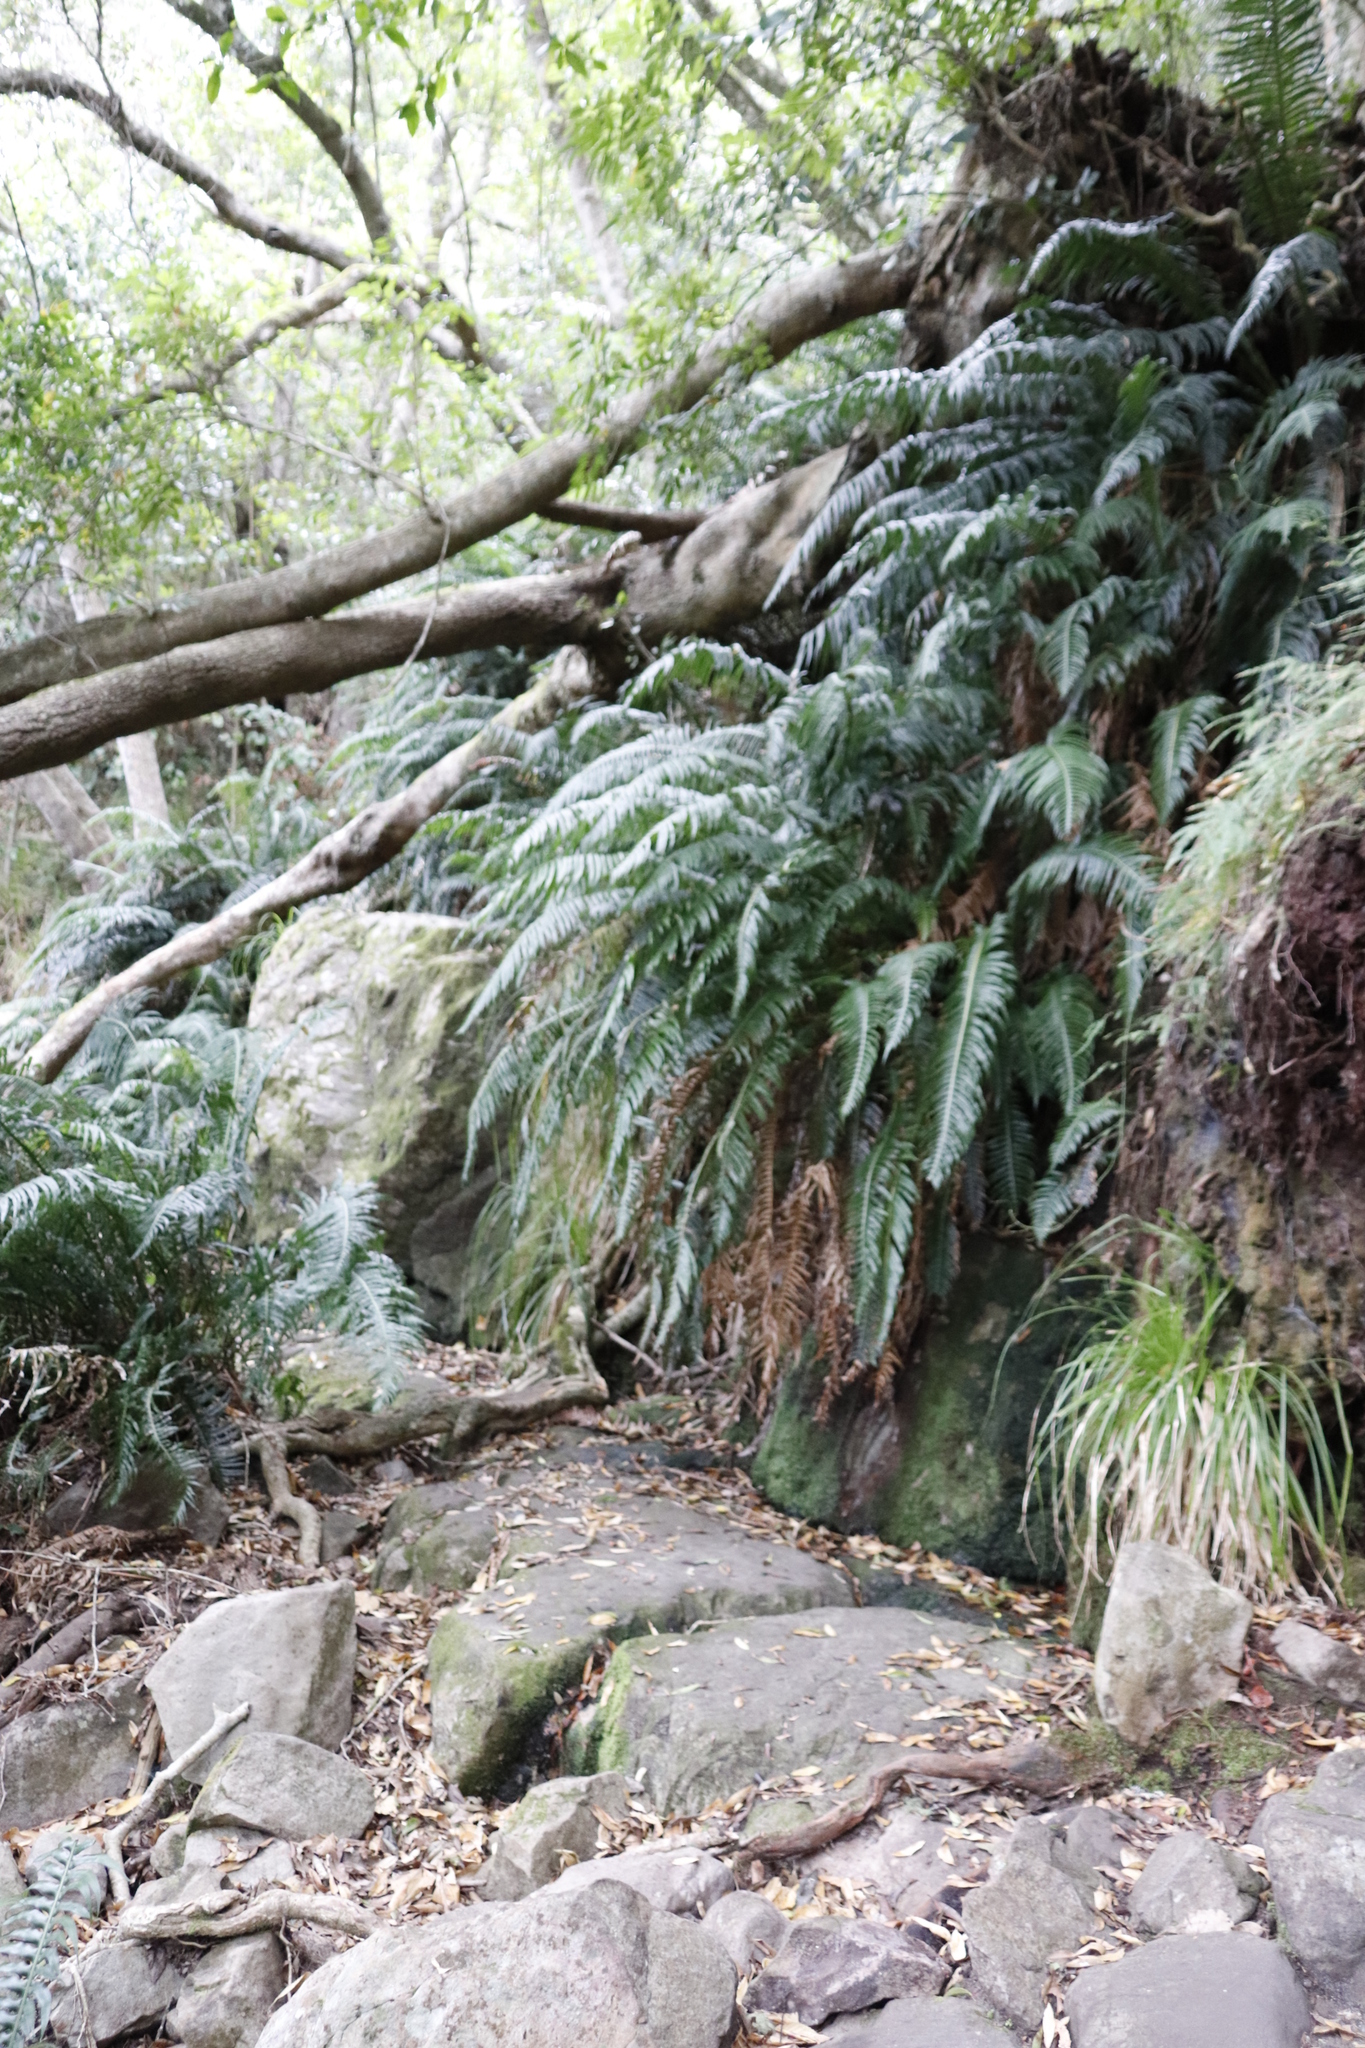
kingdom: Plantae
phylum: Tracheophyta
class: Polypodiopsida
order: Polypodiales
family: Blechnaceae
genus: Lomaridium
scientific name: Lomaridium attenuatum
